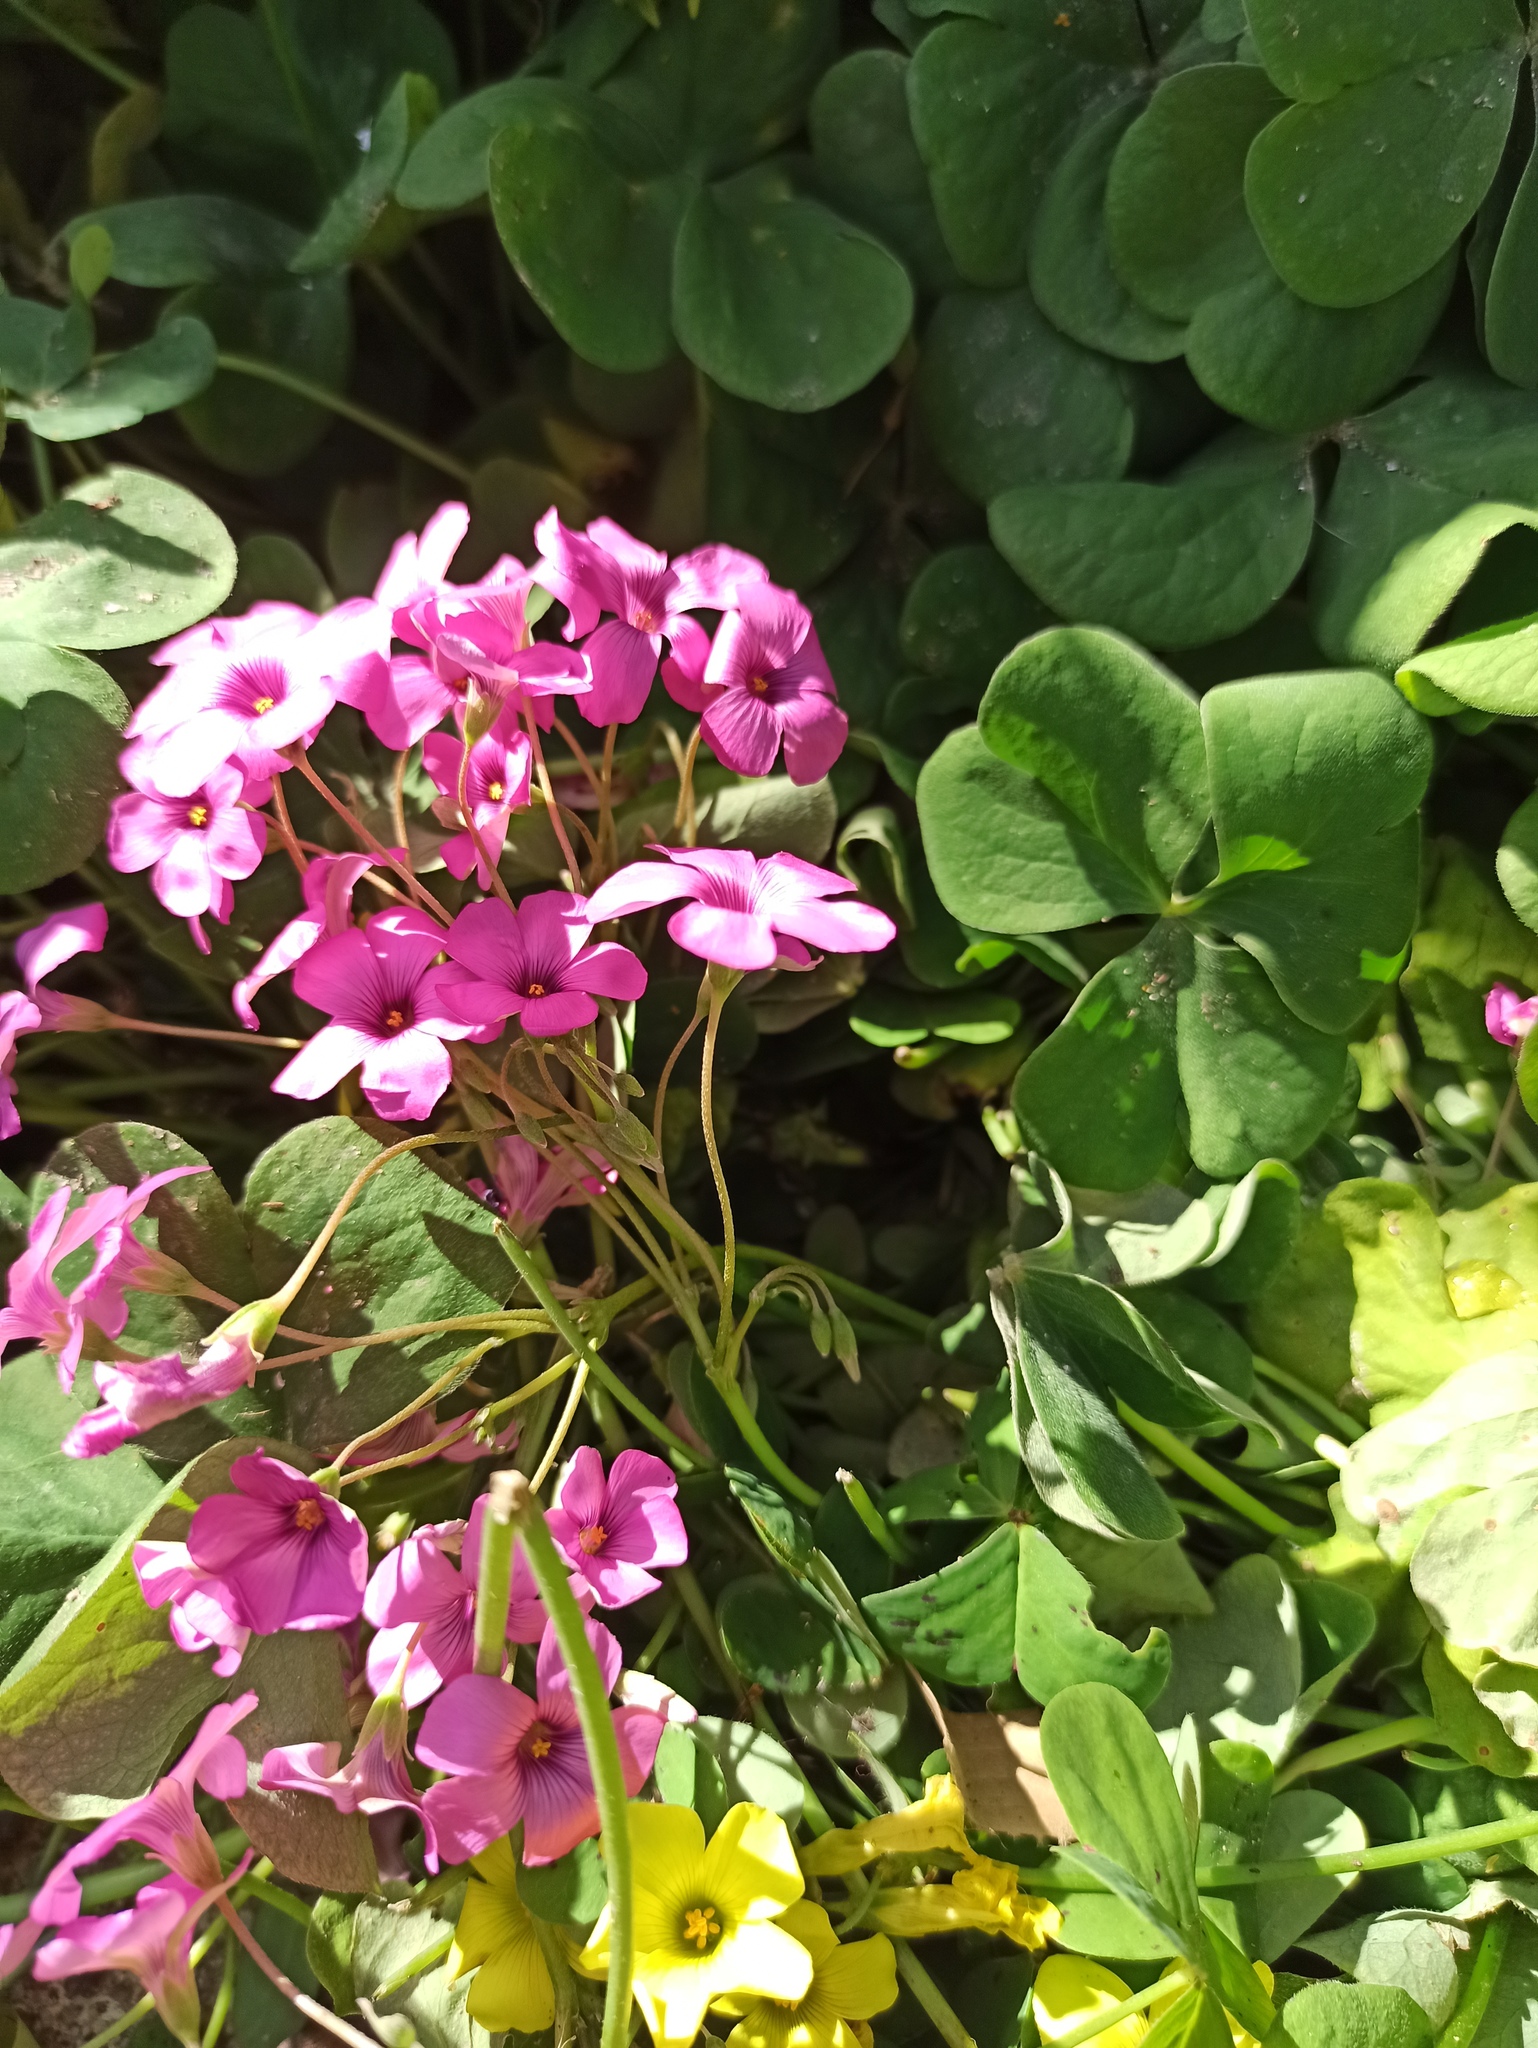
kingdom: Plantae
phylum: Tracheophyta
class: Magnoliopsida
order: Oxalidales
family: Oxalidaceae
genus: Oxalis
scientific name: Oxalis articulata
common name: Pink-sorrel
